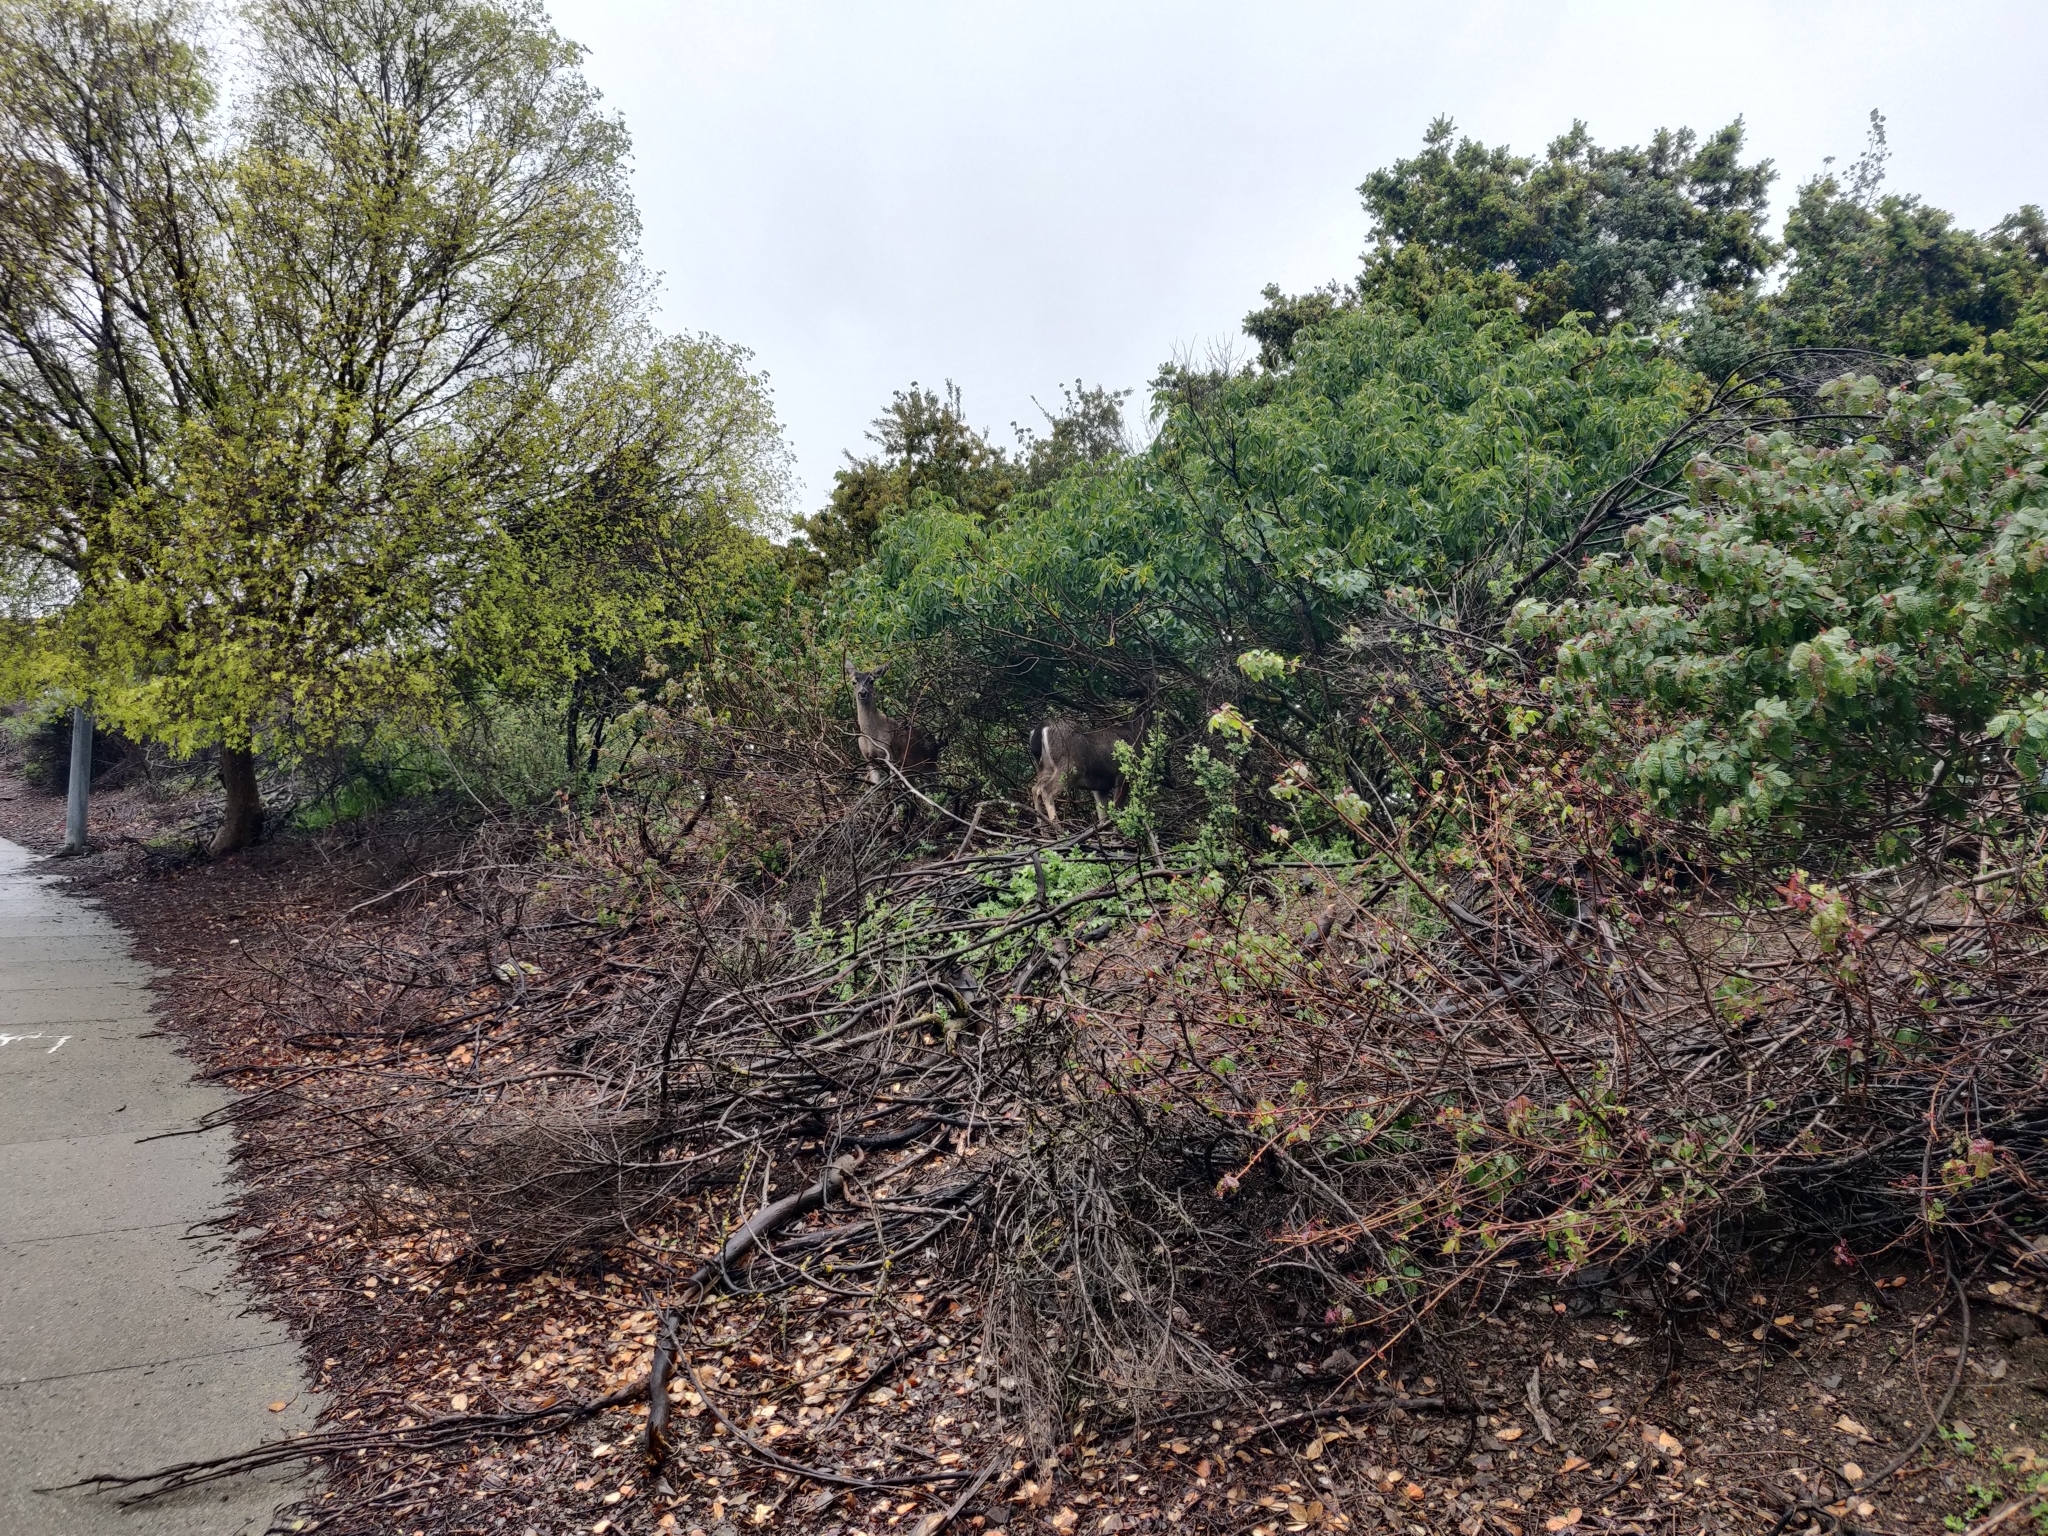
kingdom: Animalia
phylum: Chordata
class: Mammalia
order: Artiodactyla
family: Cervidae
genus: Odocoileus
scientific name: Odocoileus hemionus
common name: Mule deer
